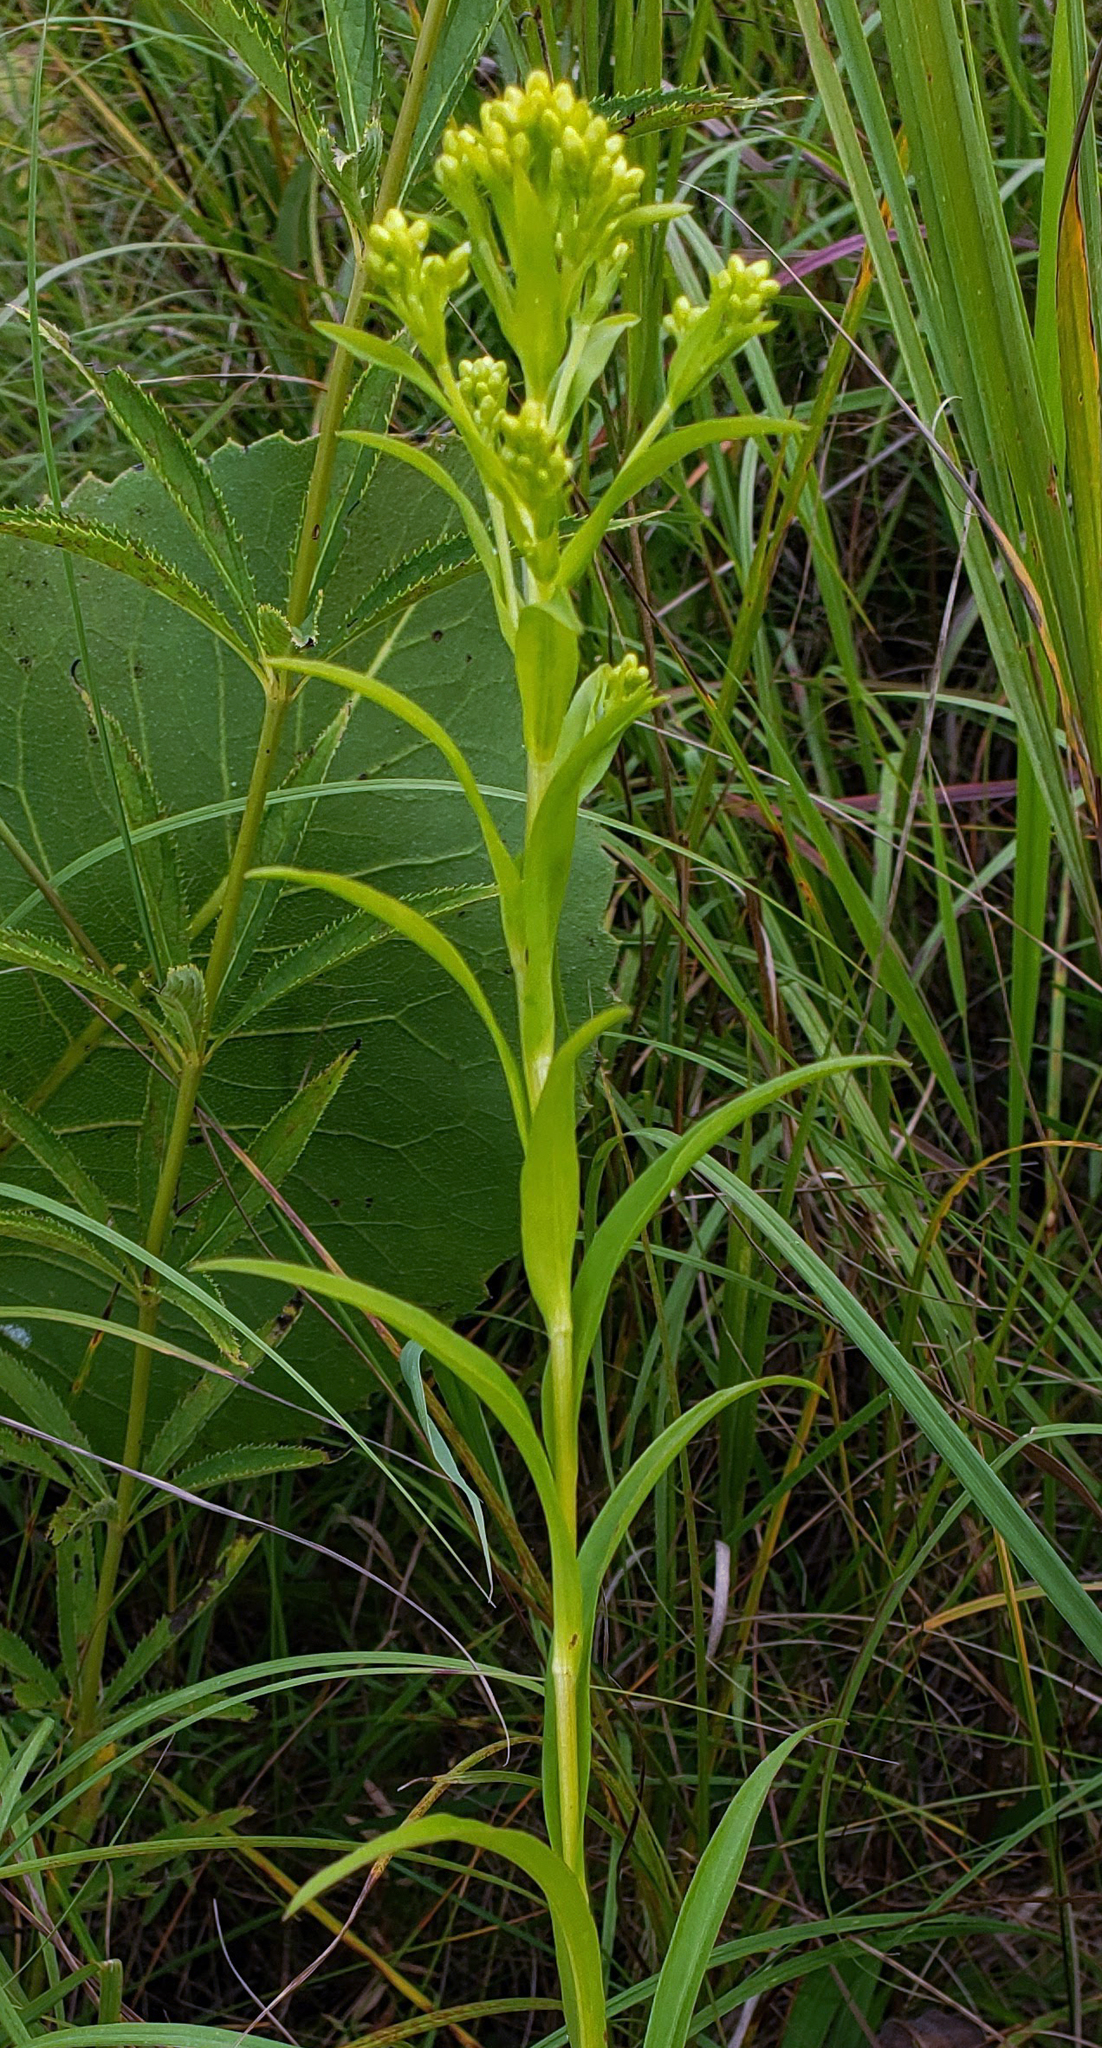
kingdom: Plantae
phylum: Tracheophyta
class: Magnoliopsida
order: Asterales
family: Asteraceae
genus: Solidago
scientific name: Solidago riddellii
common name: Riddell's goldenrod
